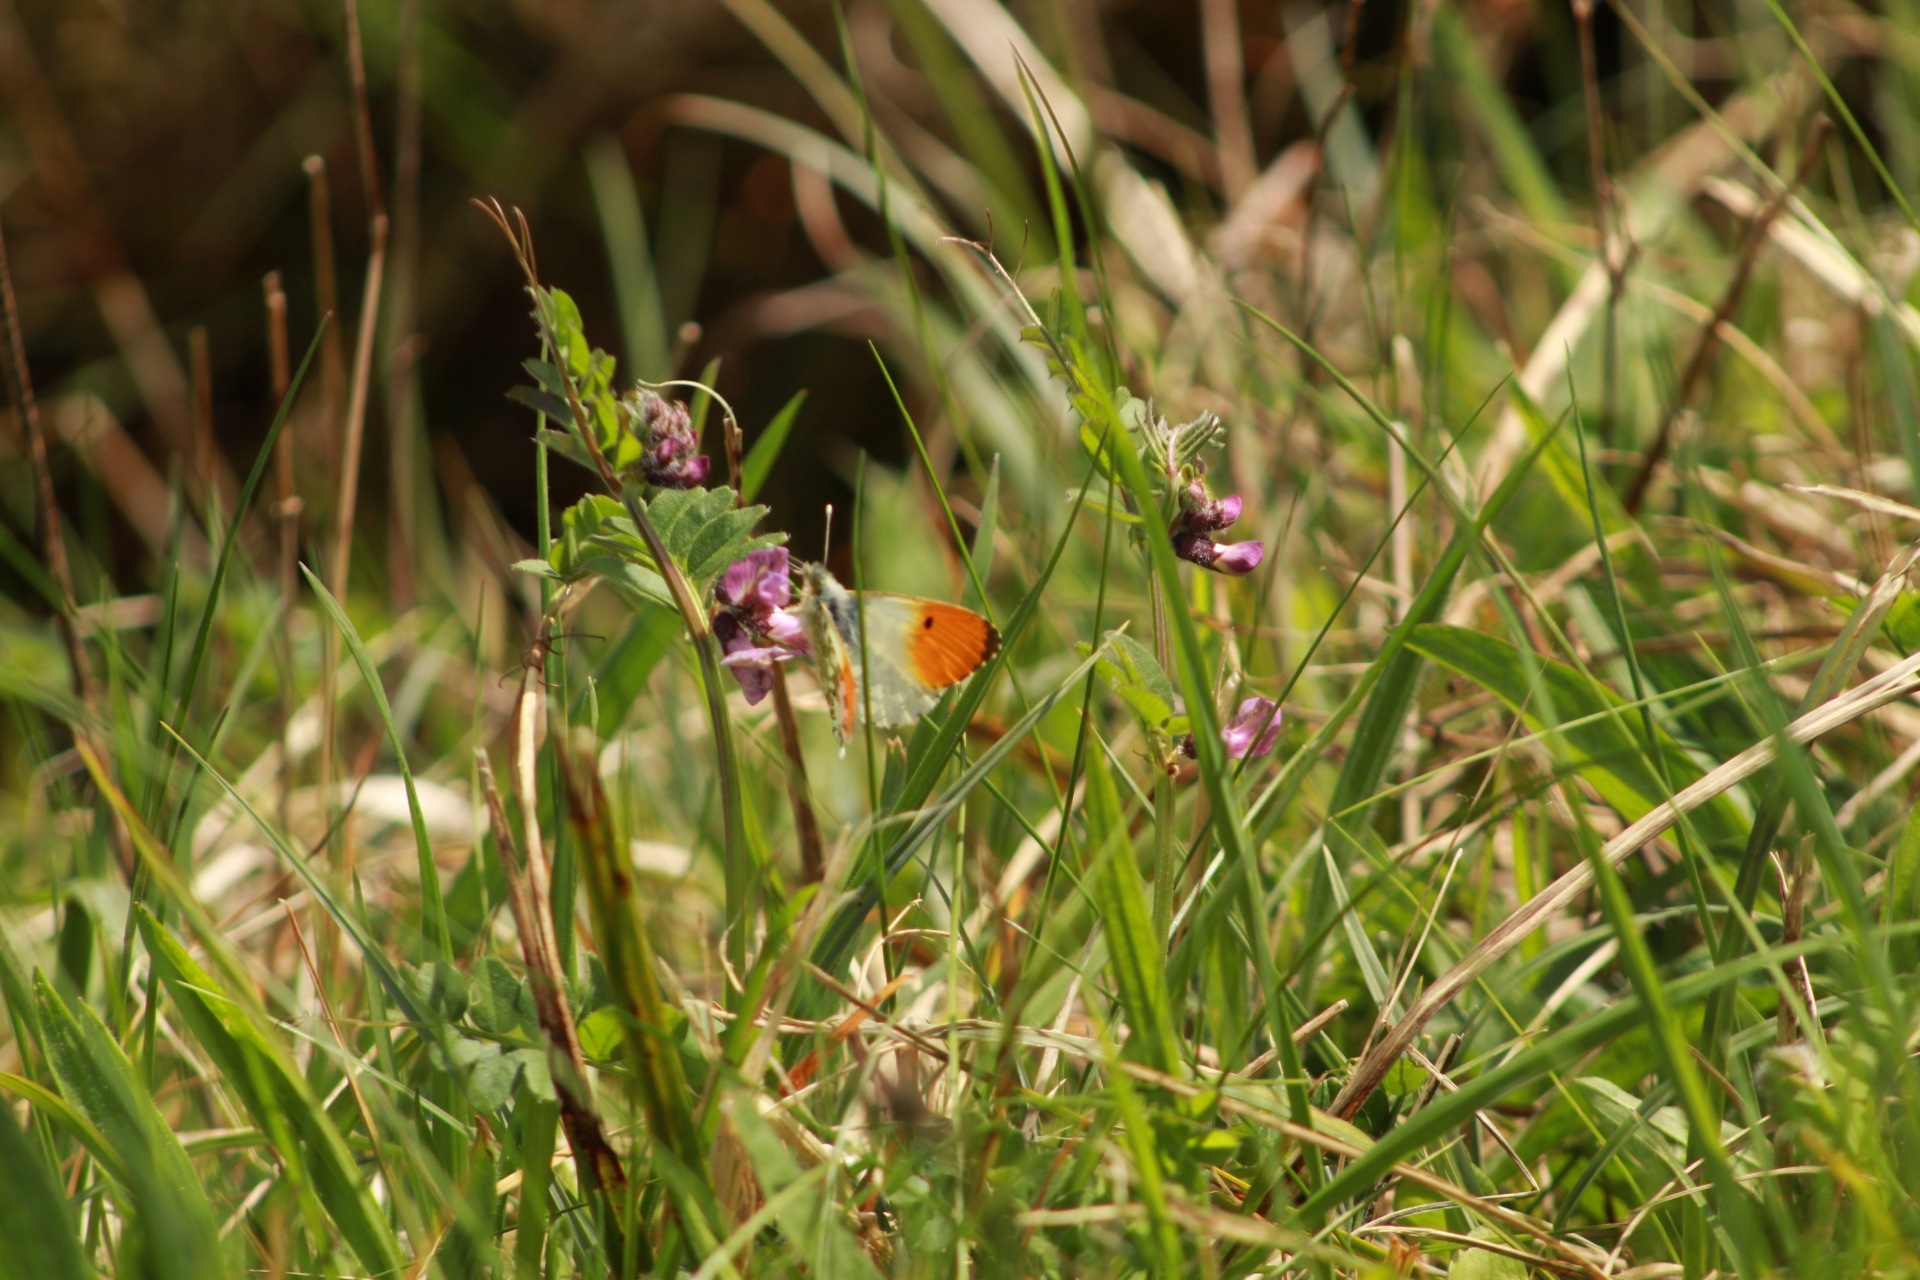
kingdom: Animalia
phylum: Arthropoda
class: Insecta
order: Lepidoptera
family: Pieridae
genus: Anthocharis
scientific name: Anthocharis cardamines
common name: Orange-tip
